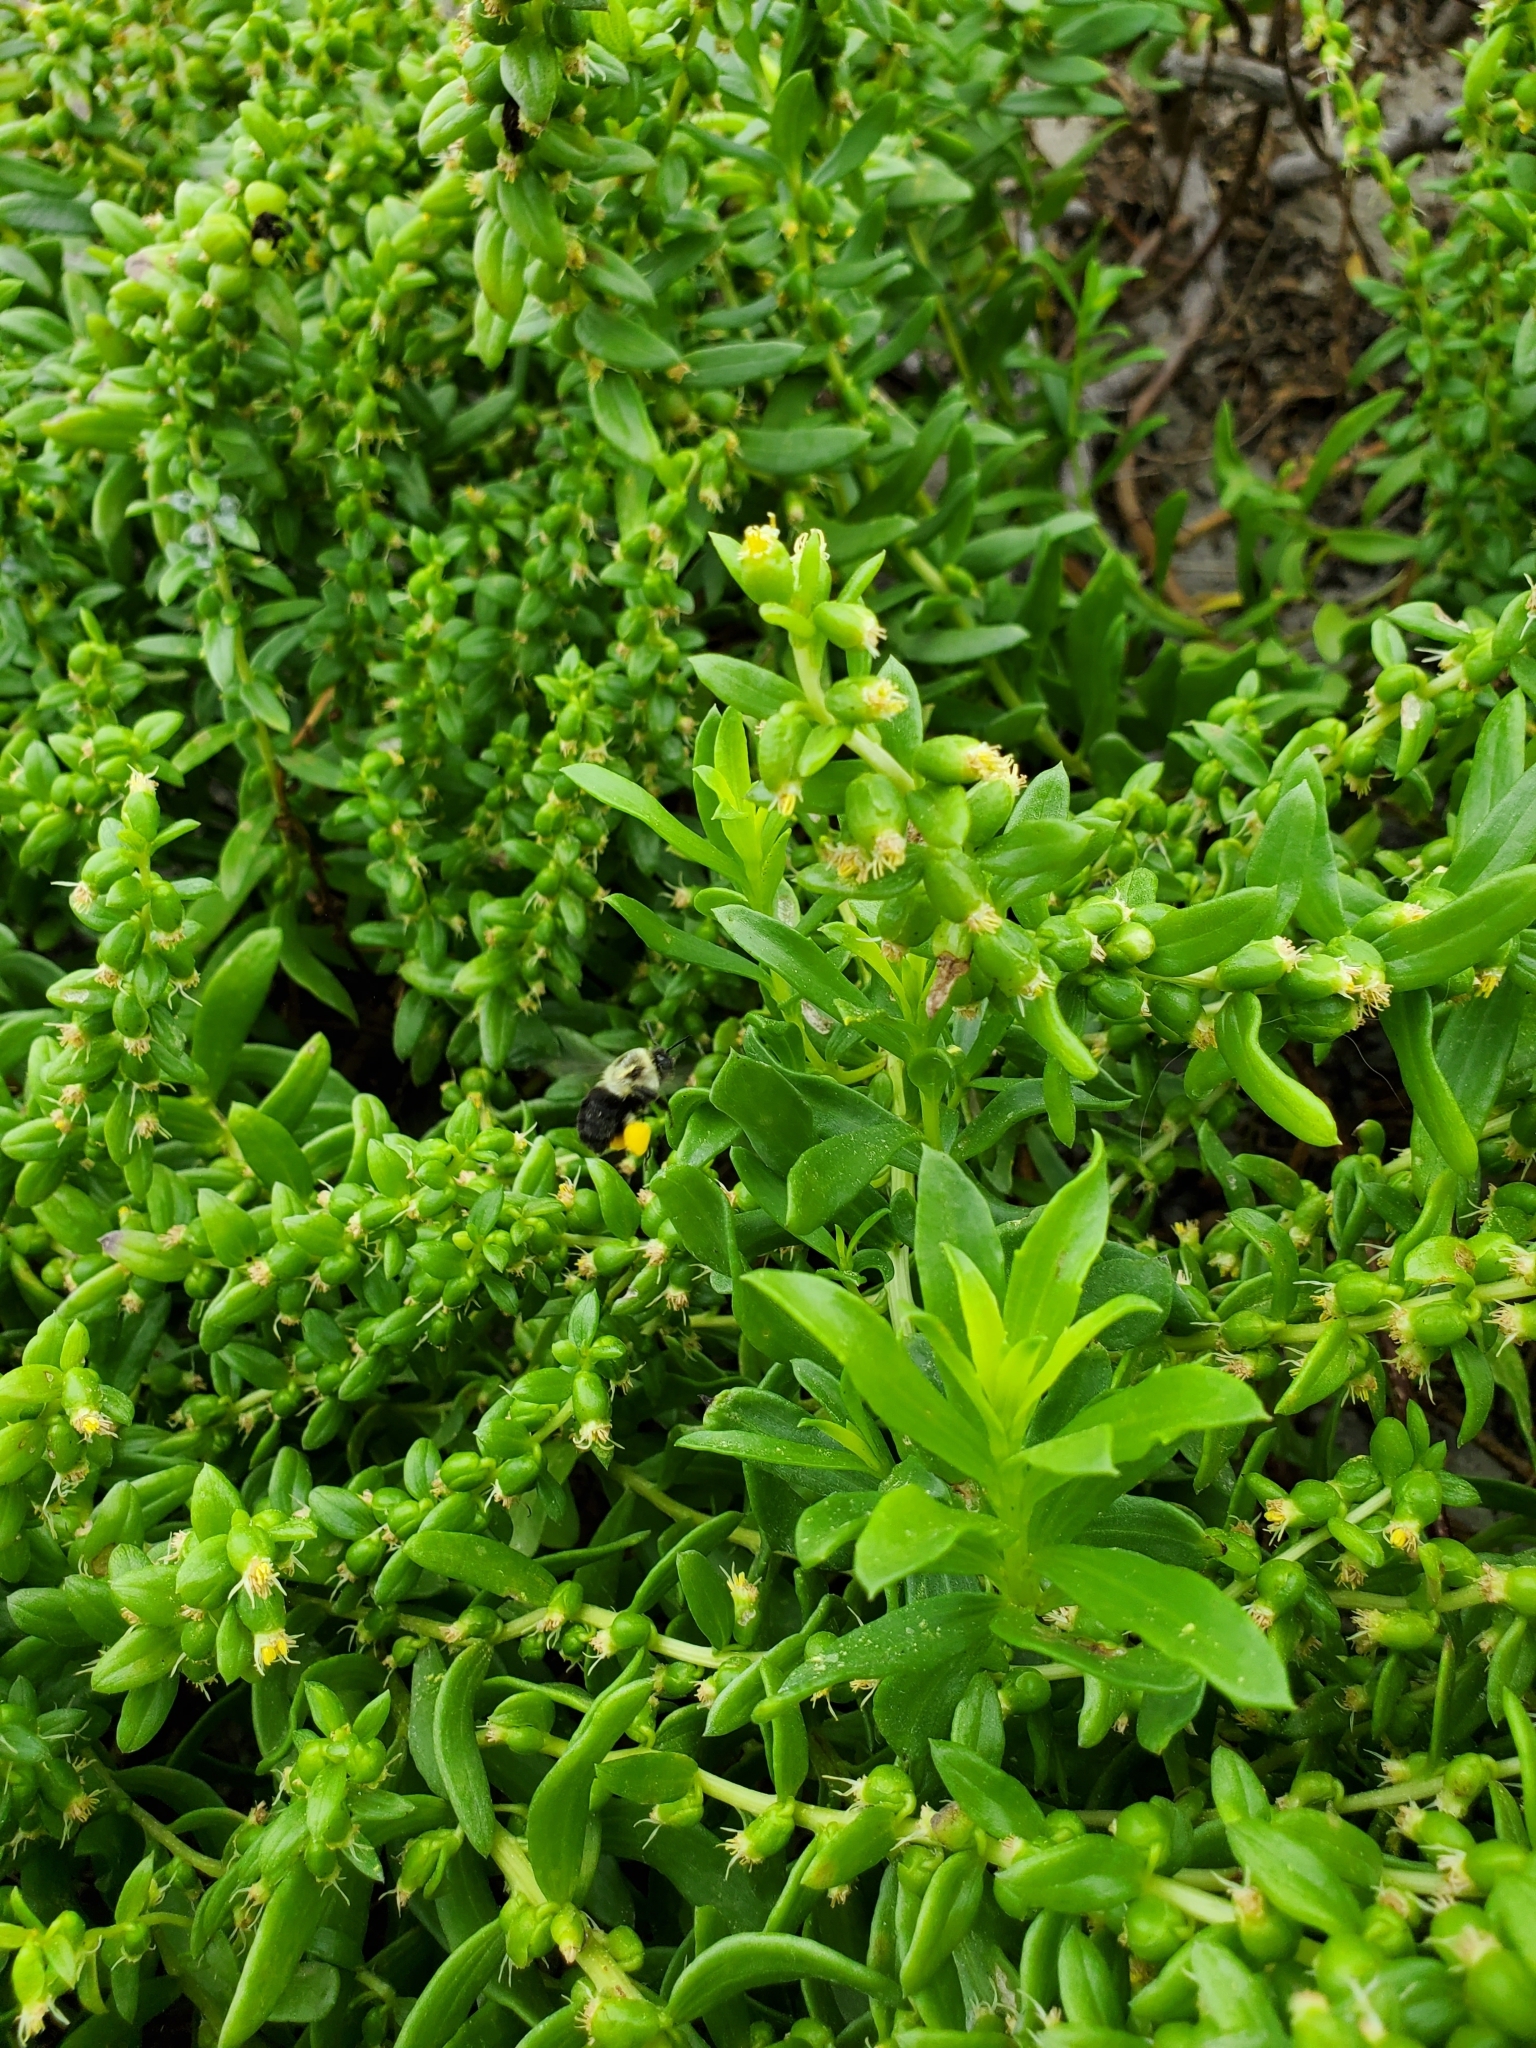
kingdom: Plantae
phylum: Tracheophyta
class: Magnoliopsida
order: Asterales
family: Asteraceae
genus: Iva
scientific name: Iva imbricata
